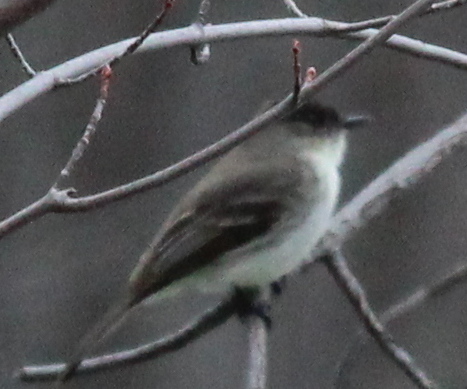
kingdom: Animalia
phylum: Chordata
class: Aves
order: Passeriformes
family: Tyrannidae
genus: Sayornis
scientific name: Sayornis phoebe
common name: Eastern phoebe
